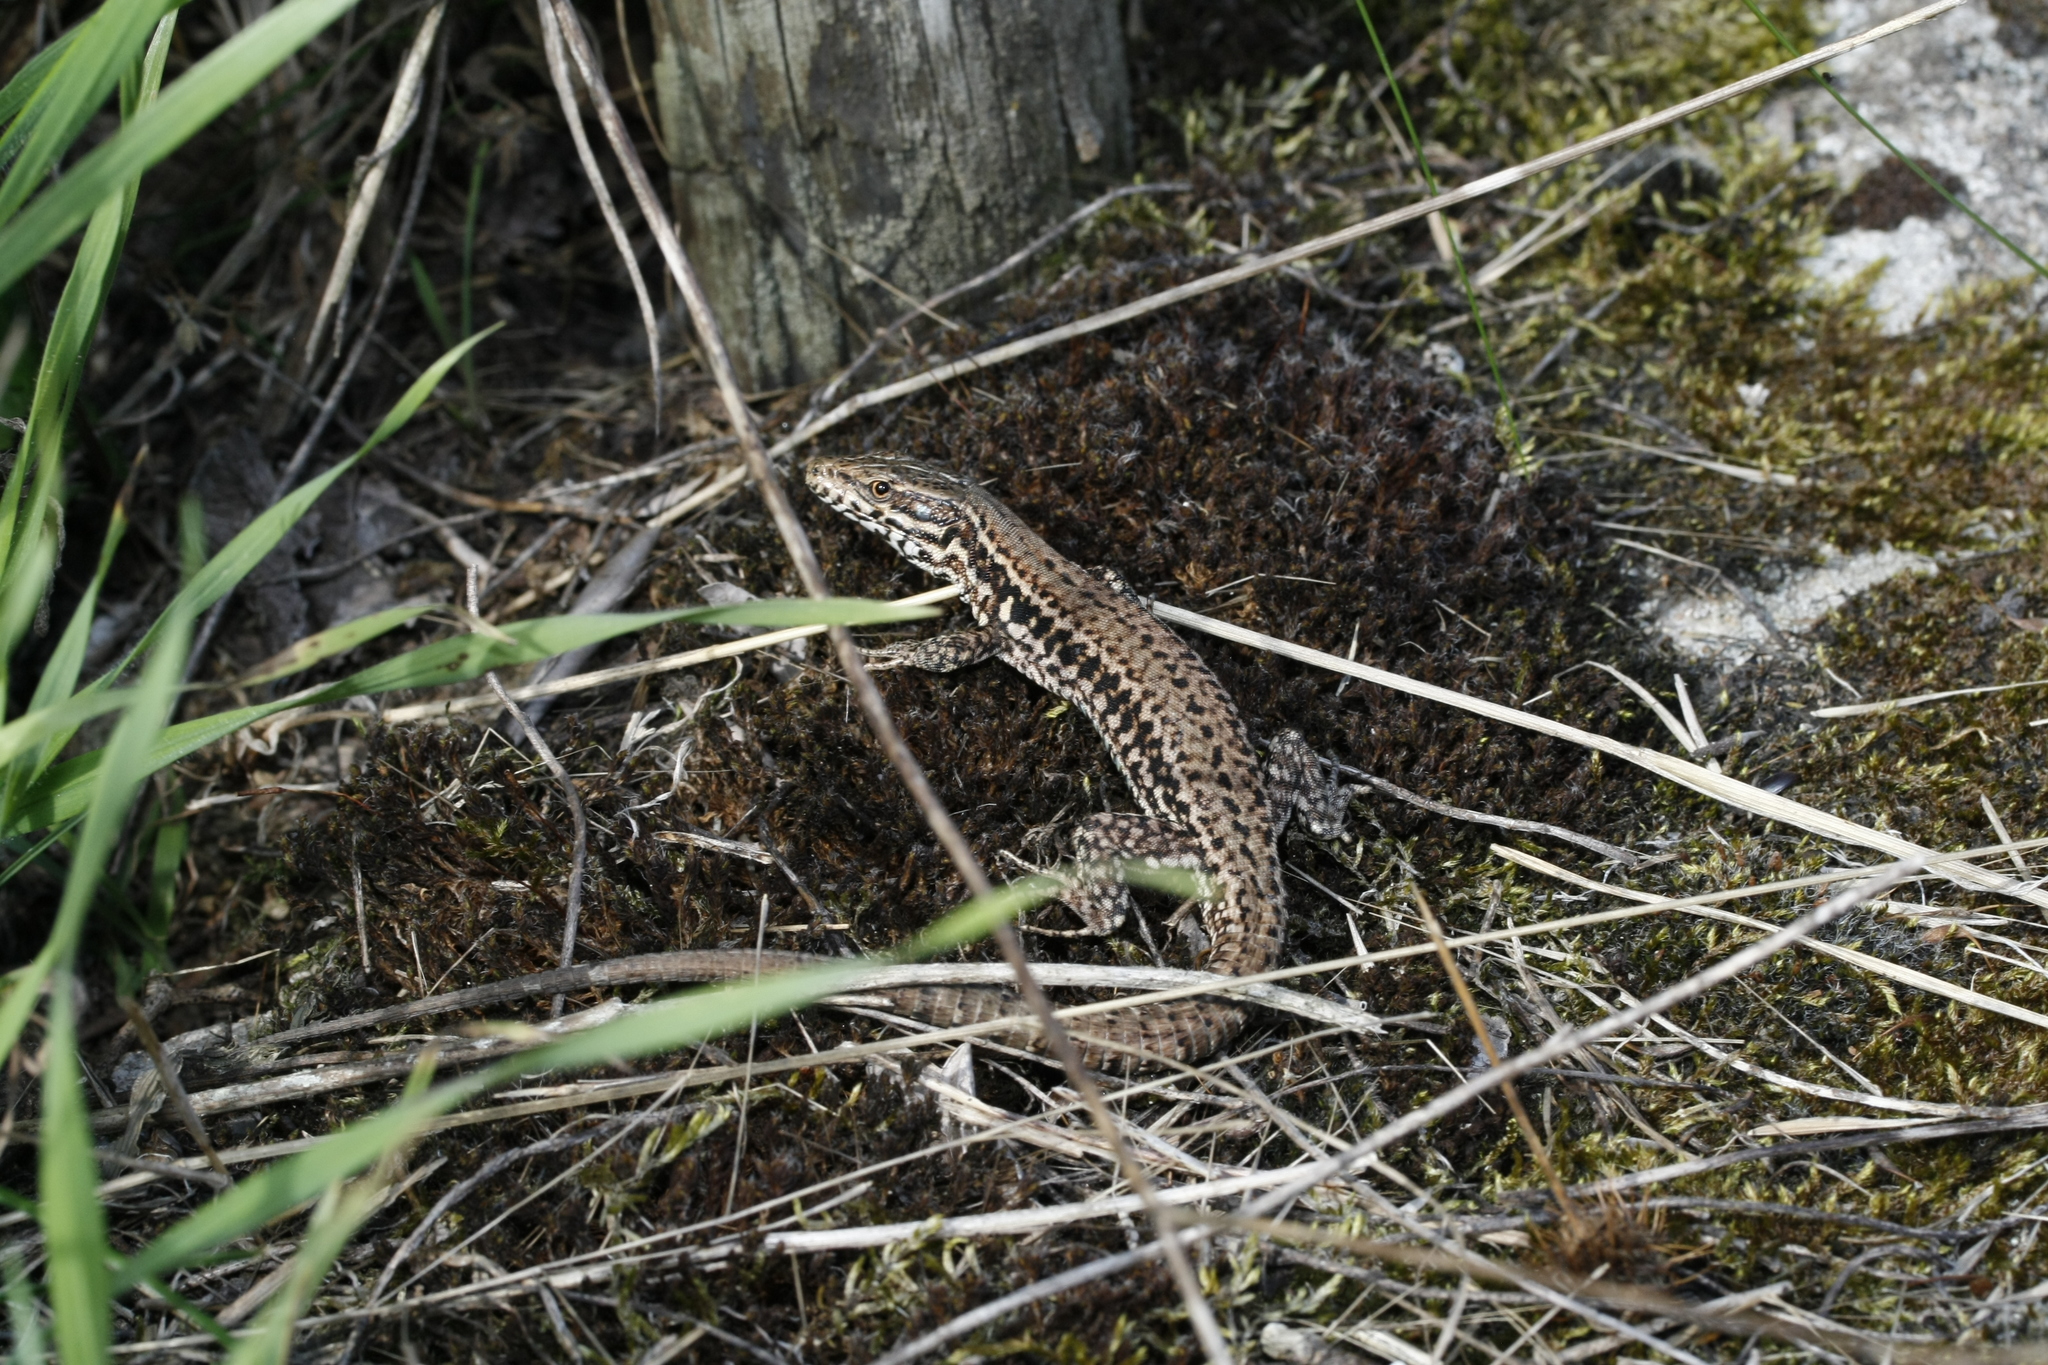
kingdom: Animalia
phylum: Chordata
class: Squamata
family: Lacertidae
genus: Podarcis
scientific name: Podarcis muralis
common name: Common wall lizard
